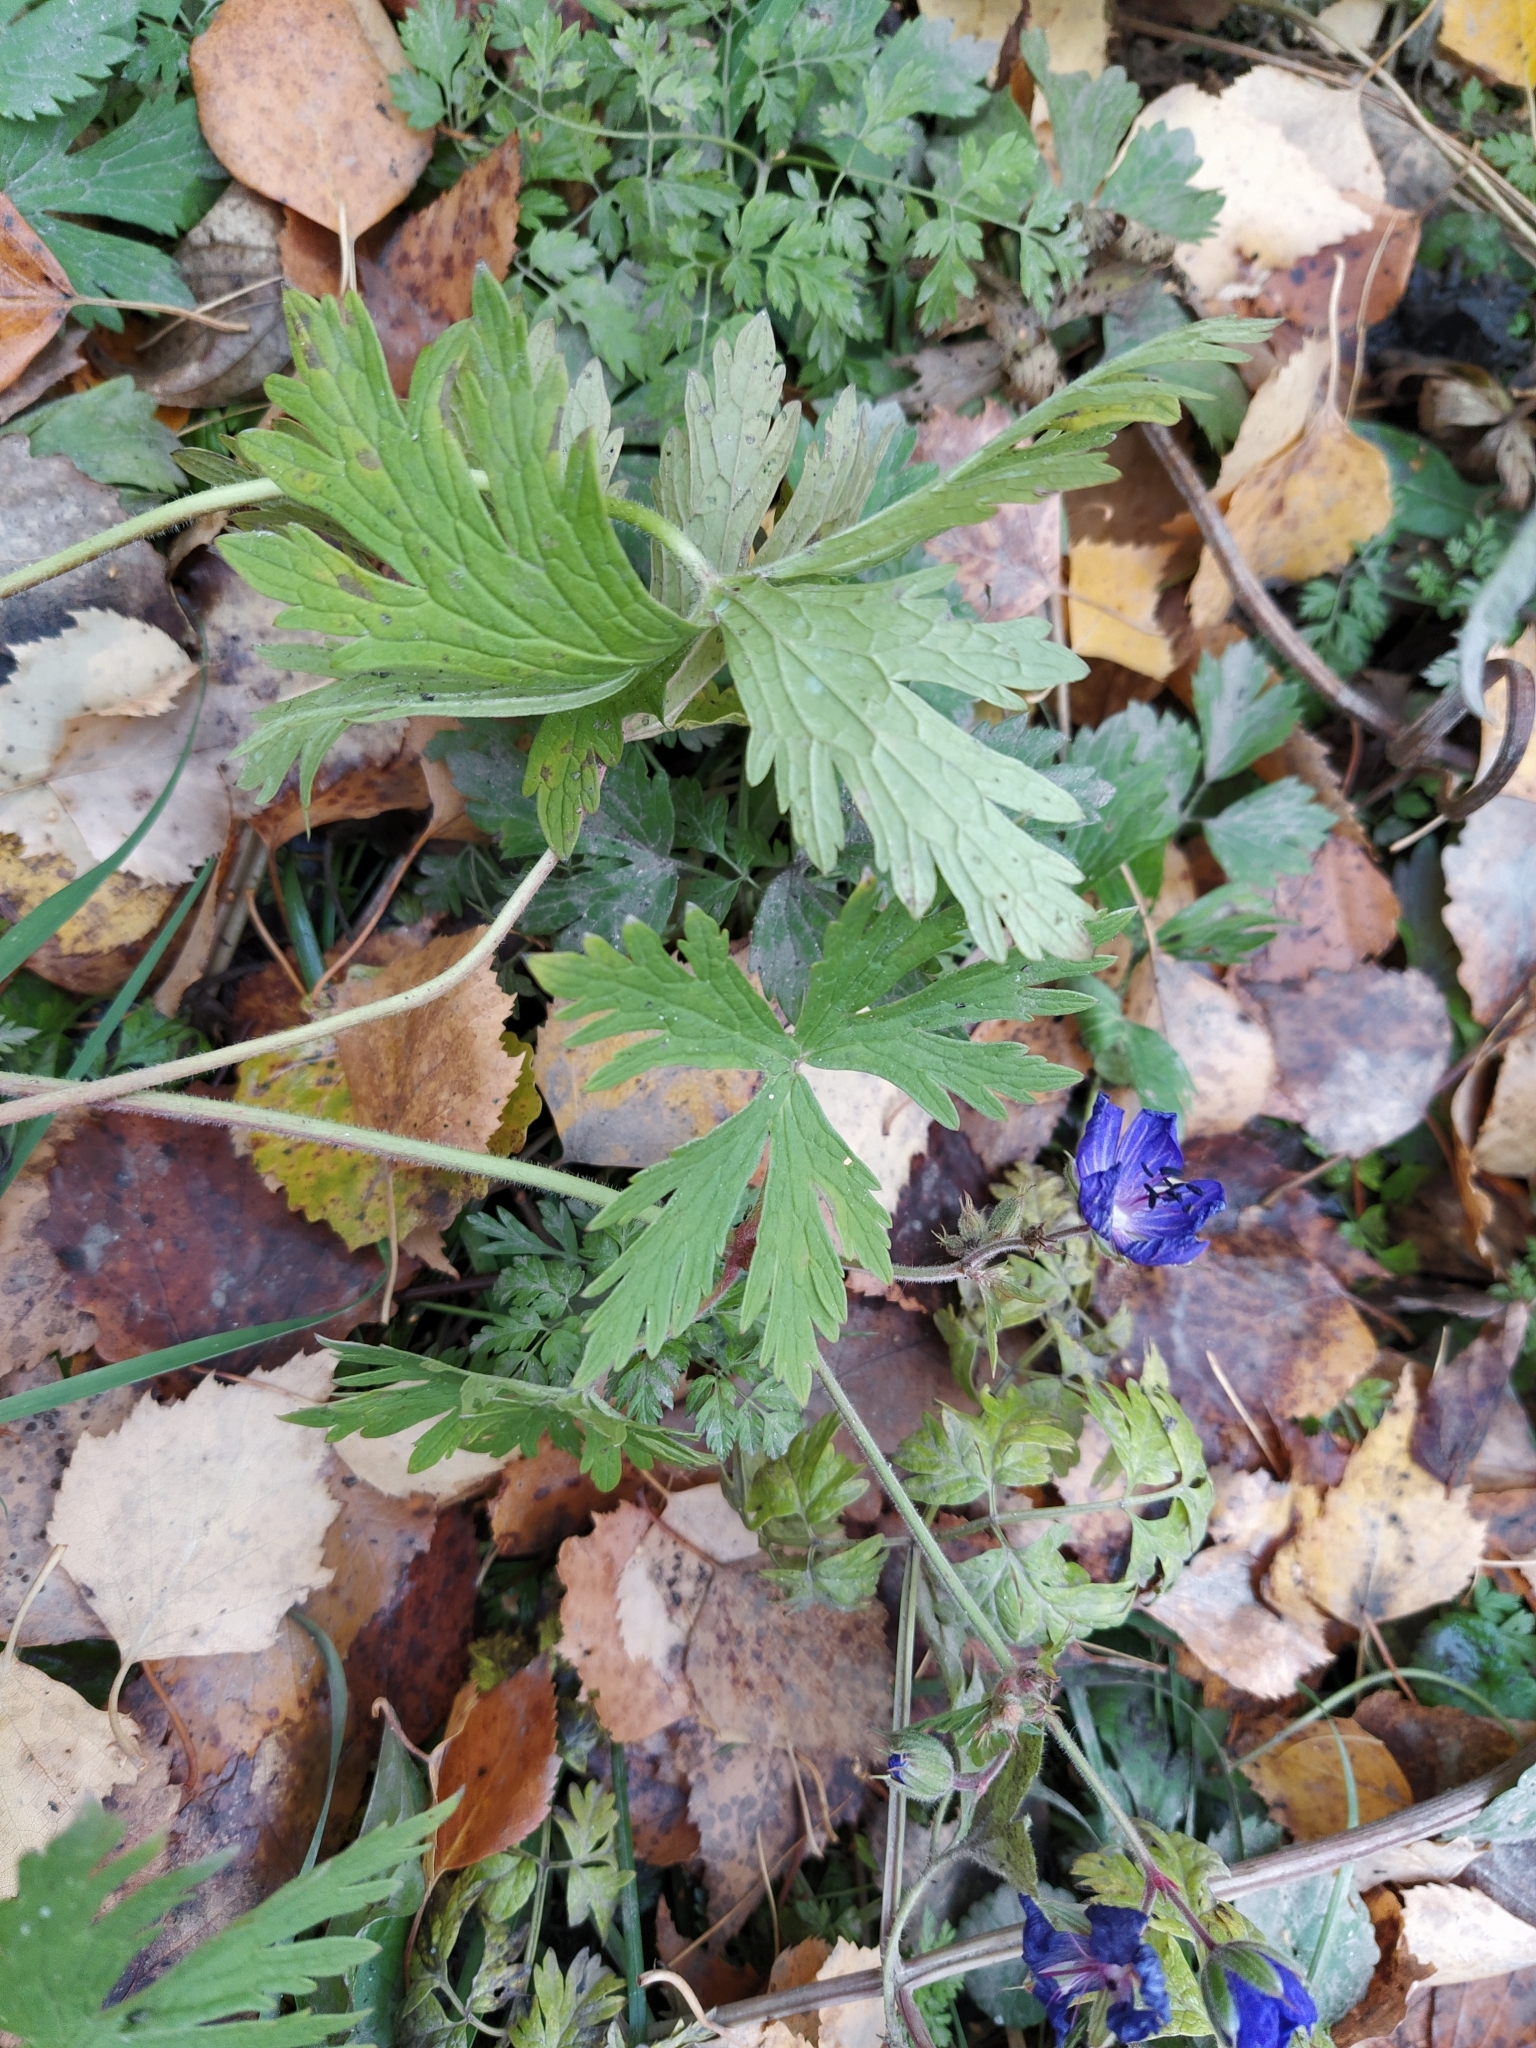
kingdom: Plantae
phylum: Tracheophyta
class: Magnoliopsida
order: Geraniales
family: Geraniaceae
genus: Geranium
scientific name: Geranium pratense
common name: Meadow crane's-bill
